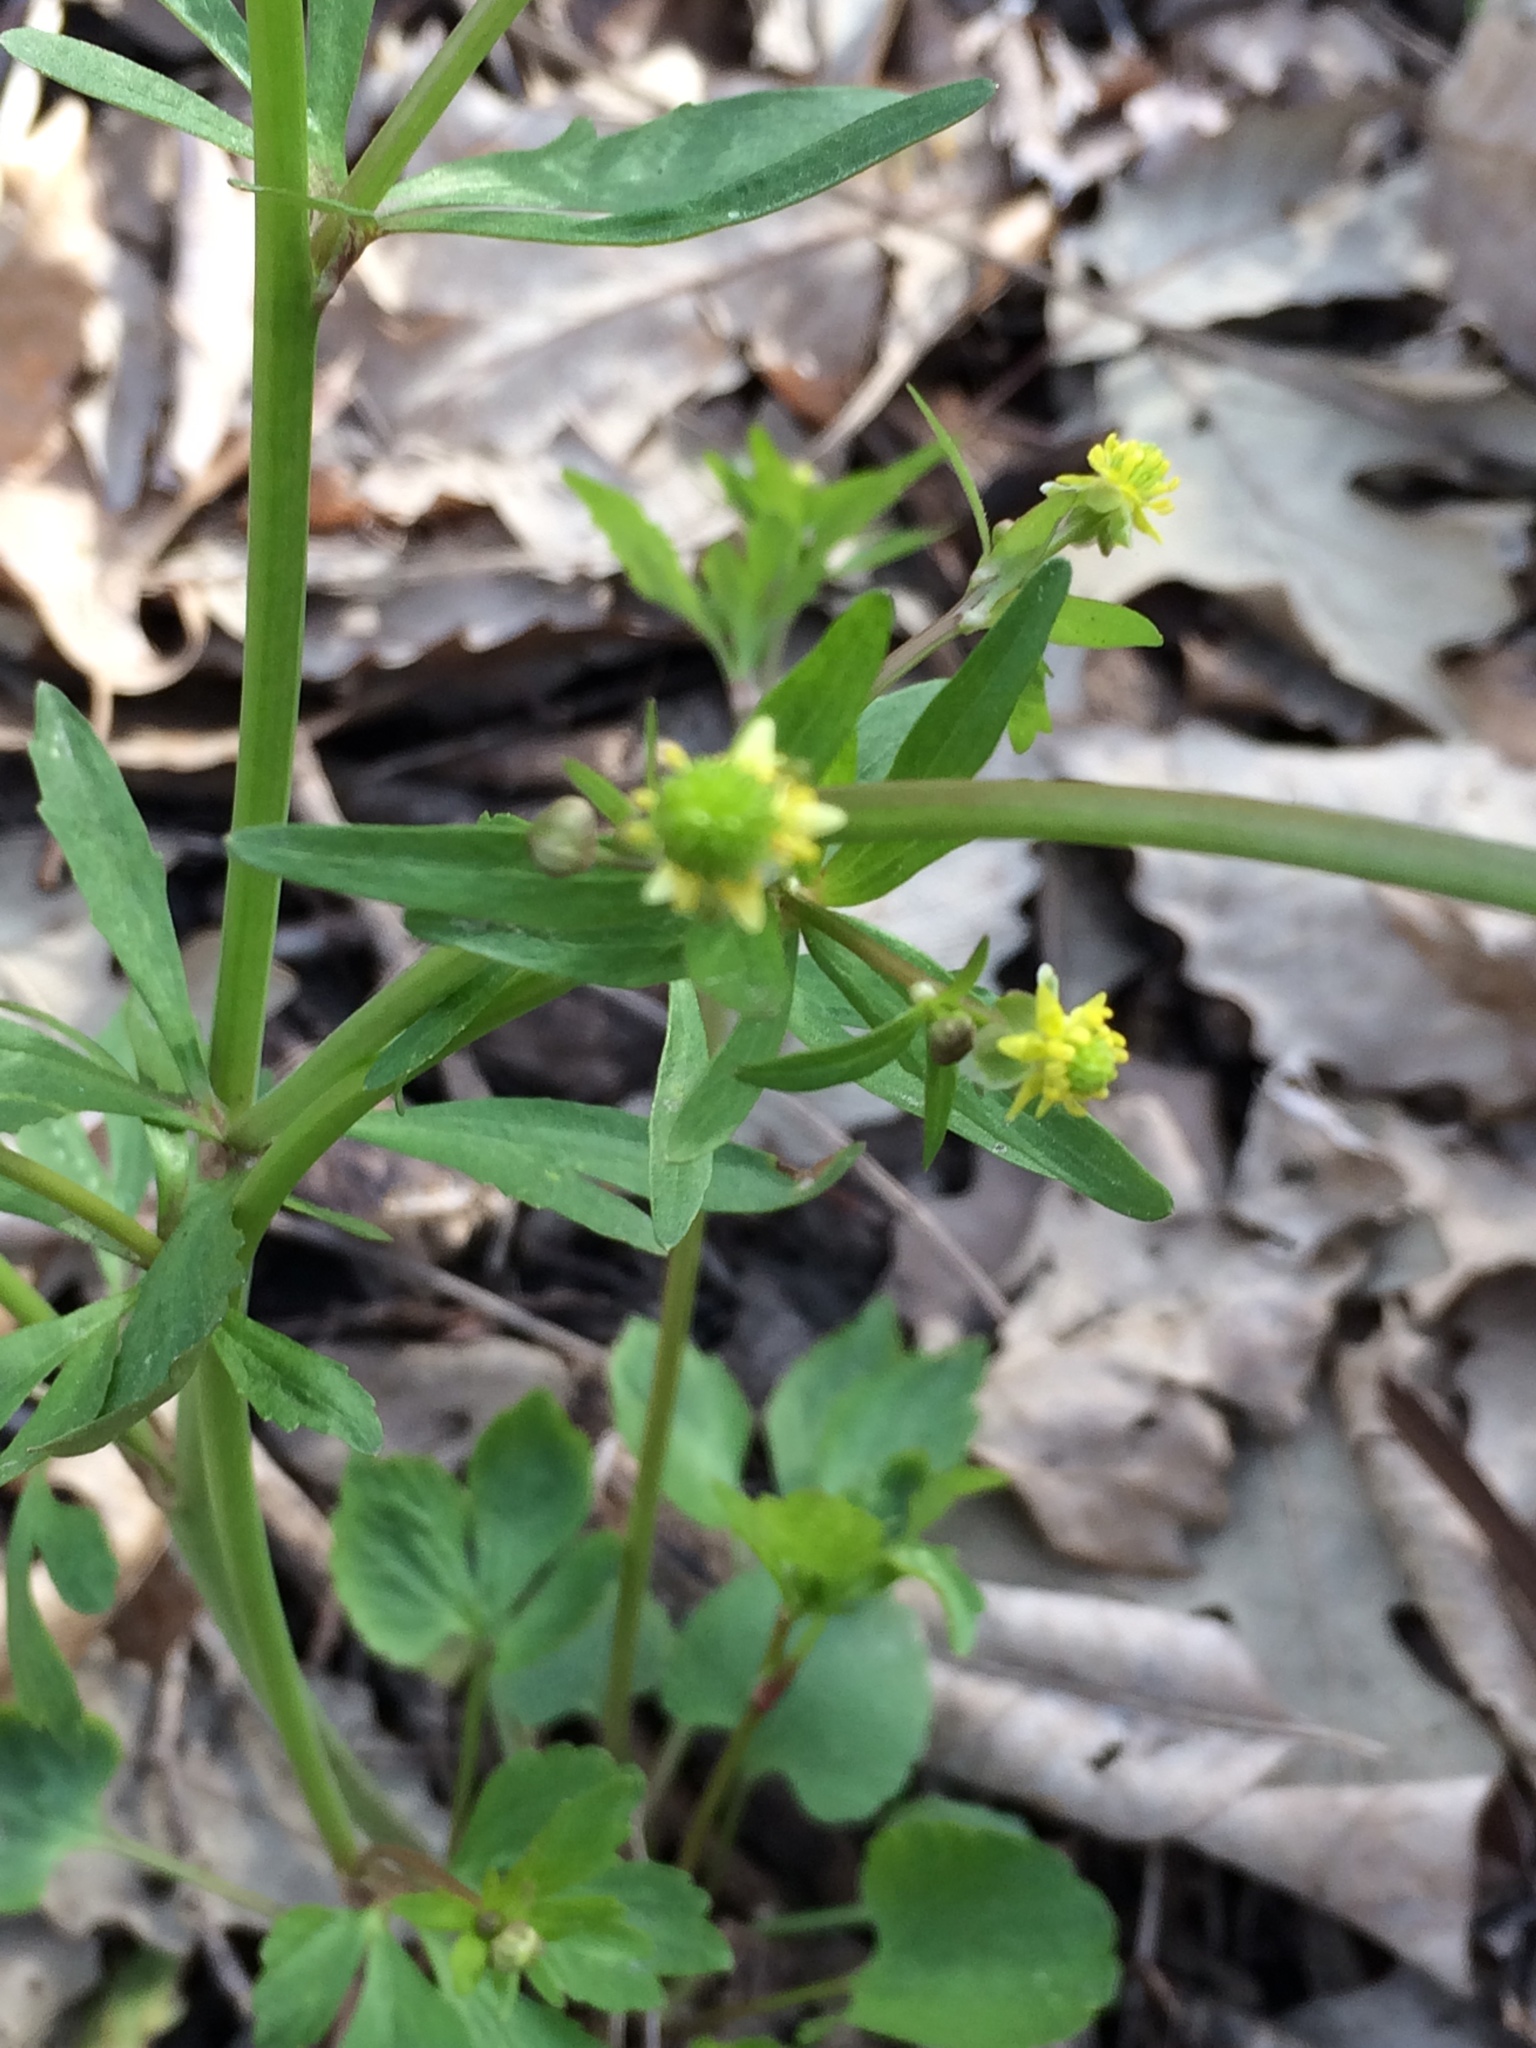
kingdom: Plantae
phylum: Tracheophyta
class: Magnoliopsida
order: Ranunculales
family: Ranunculaceae
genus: Ranunculus
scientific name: Ranunculus abortivus
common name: Early wood buttercup
